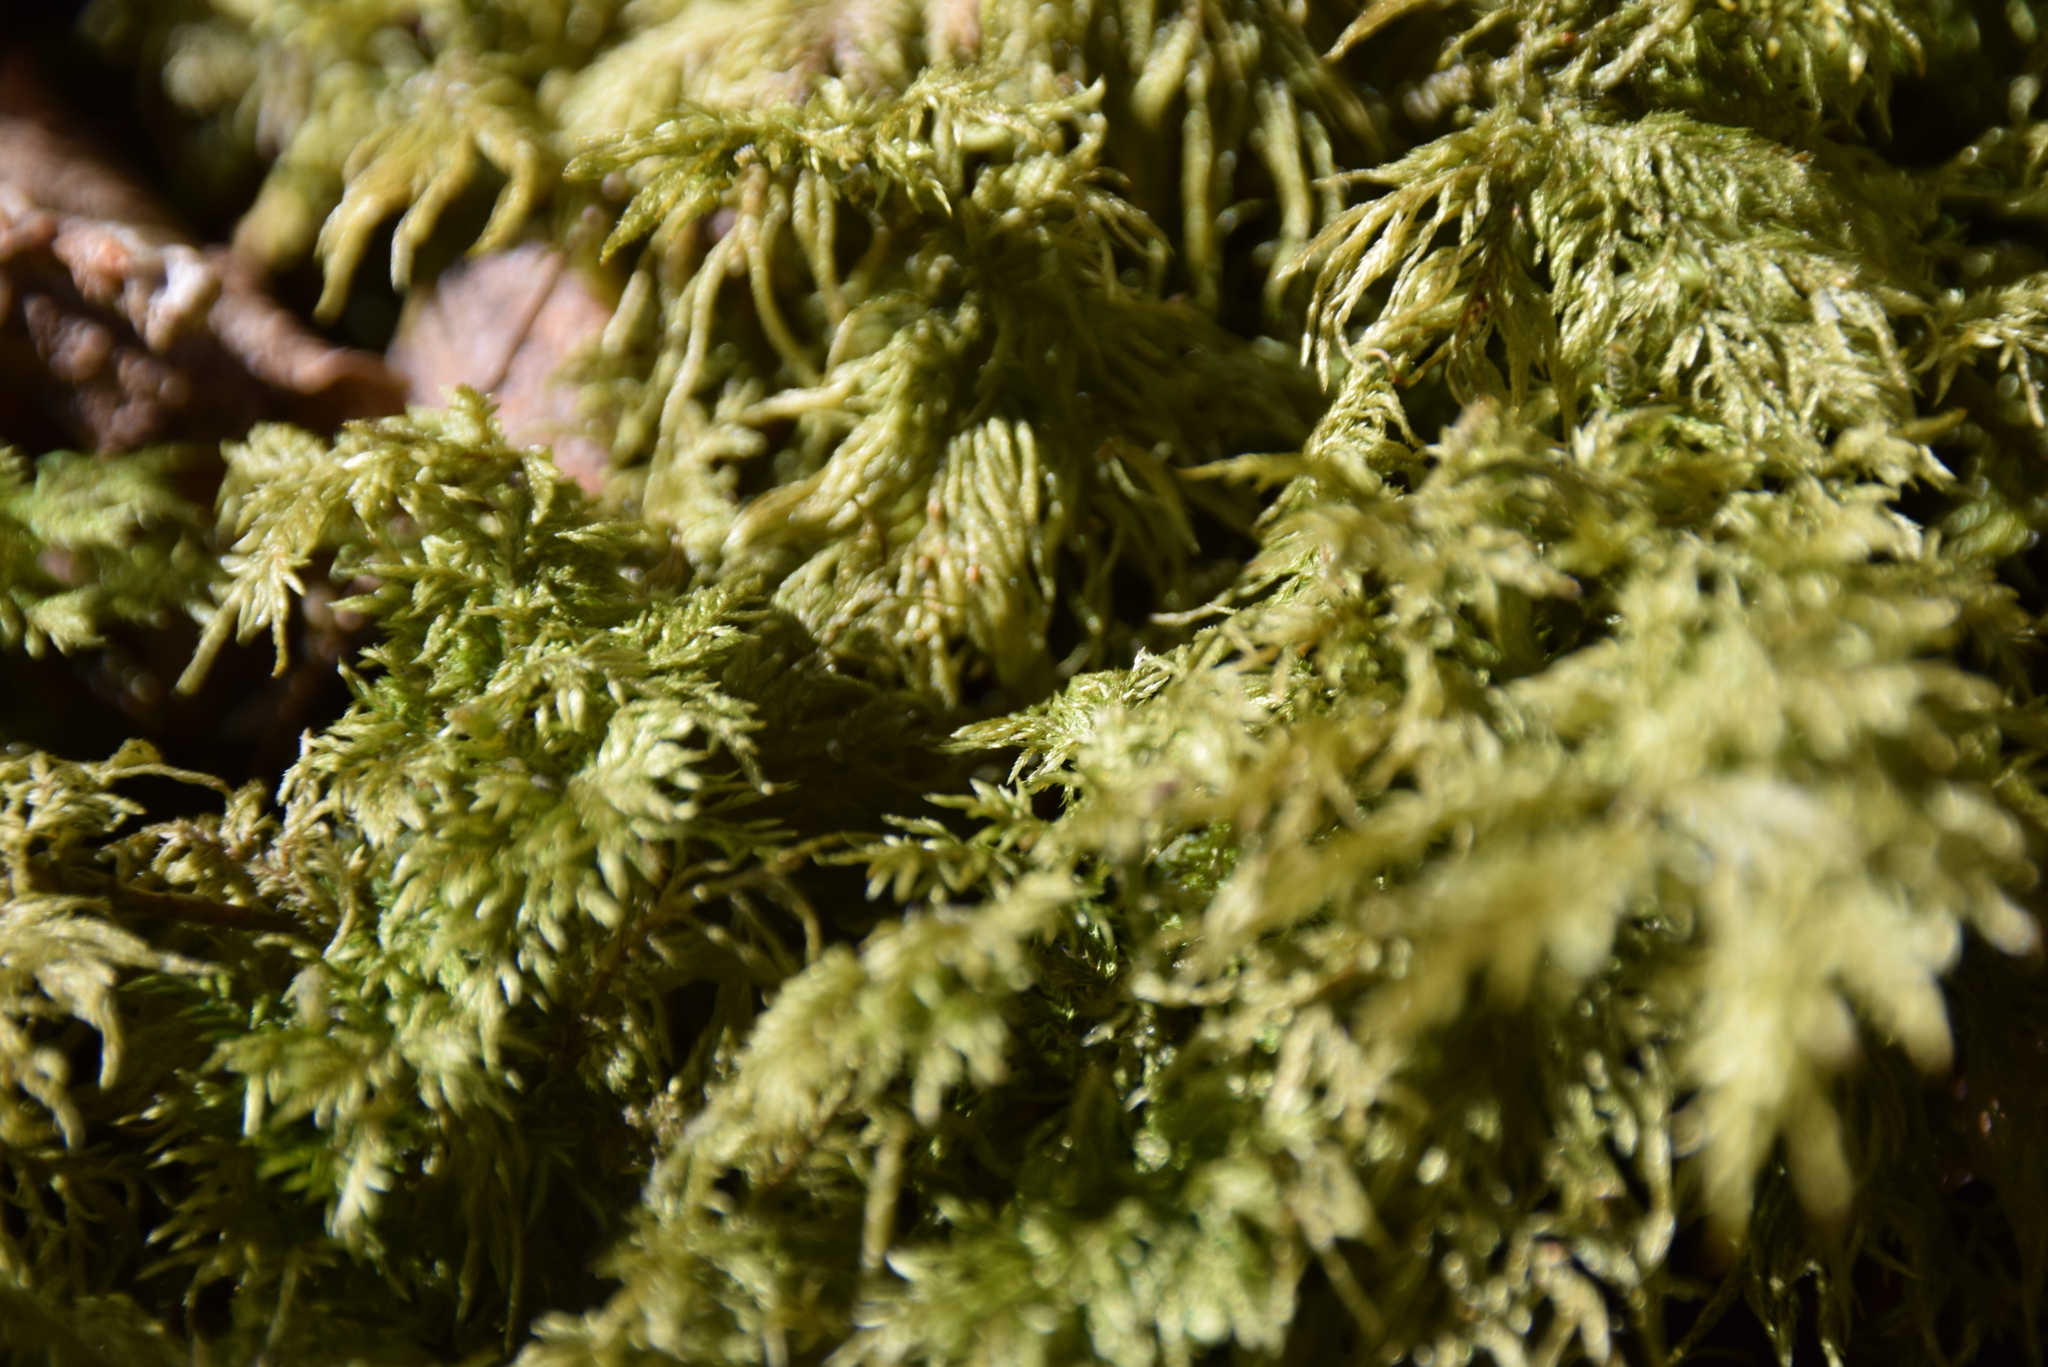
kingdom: Plantae
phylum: Bryophyta
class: Bryopsida
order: Hypnales
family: Hylocomiaceae
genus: Hylocomium
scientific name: Hylocomium splendens
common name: Stairstep moss
